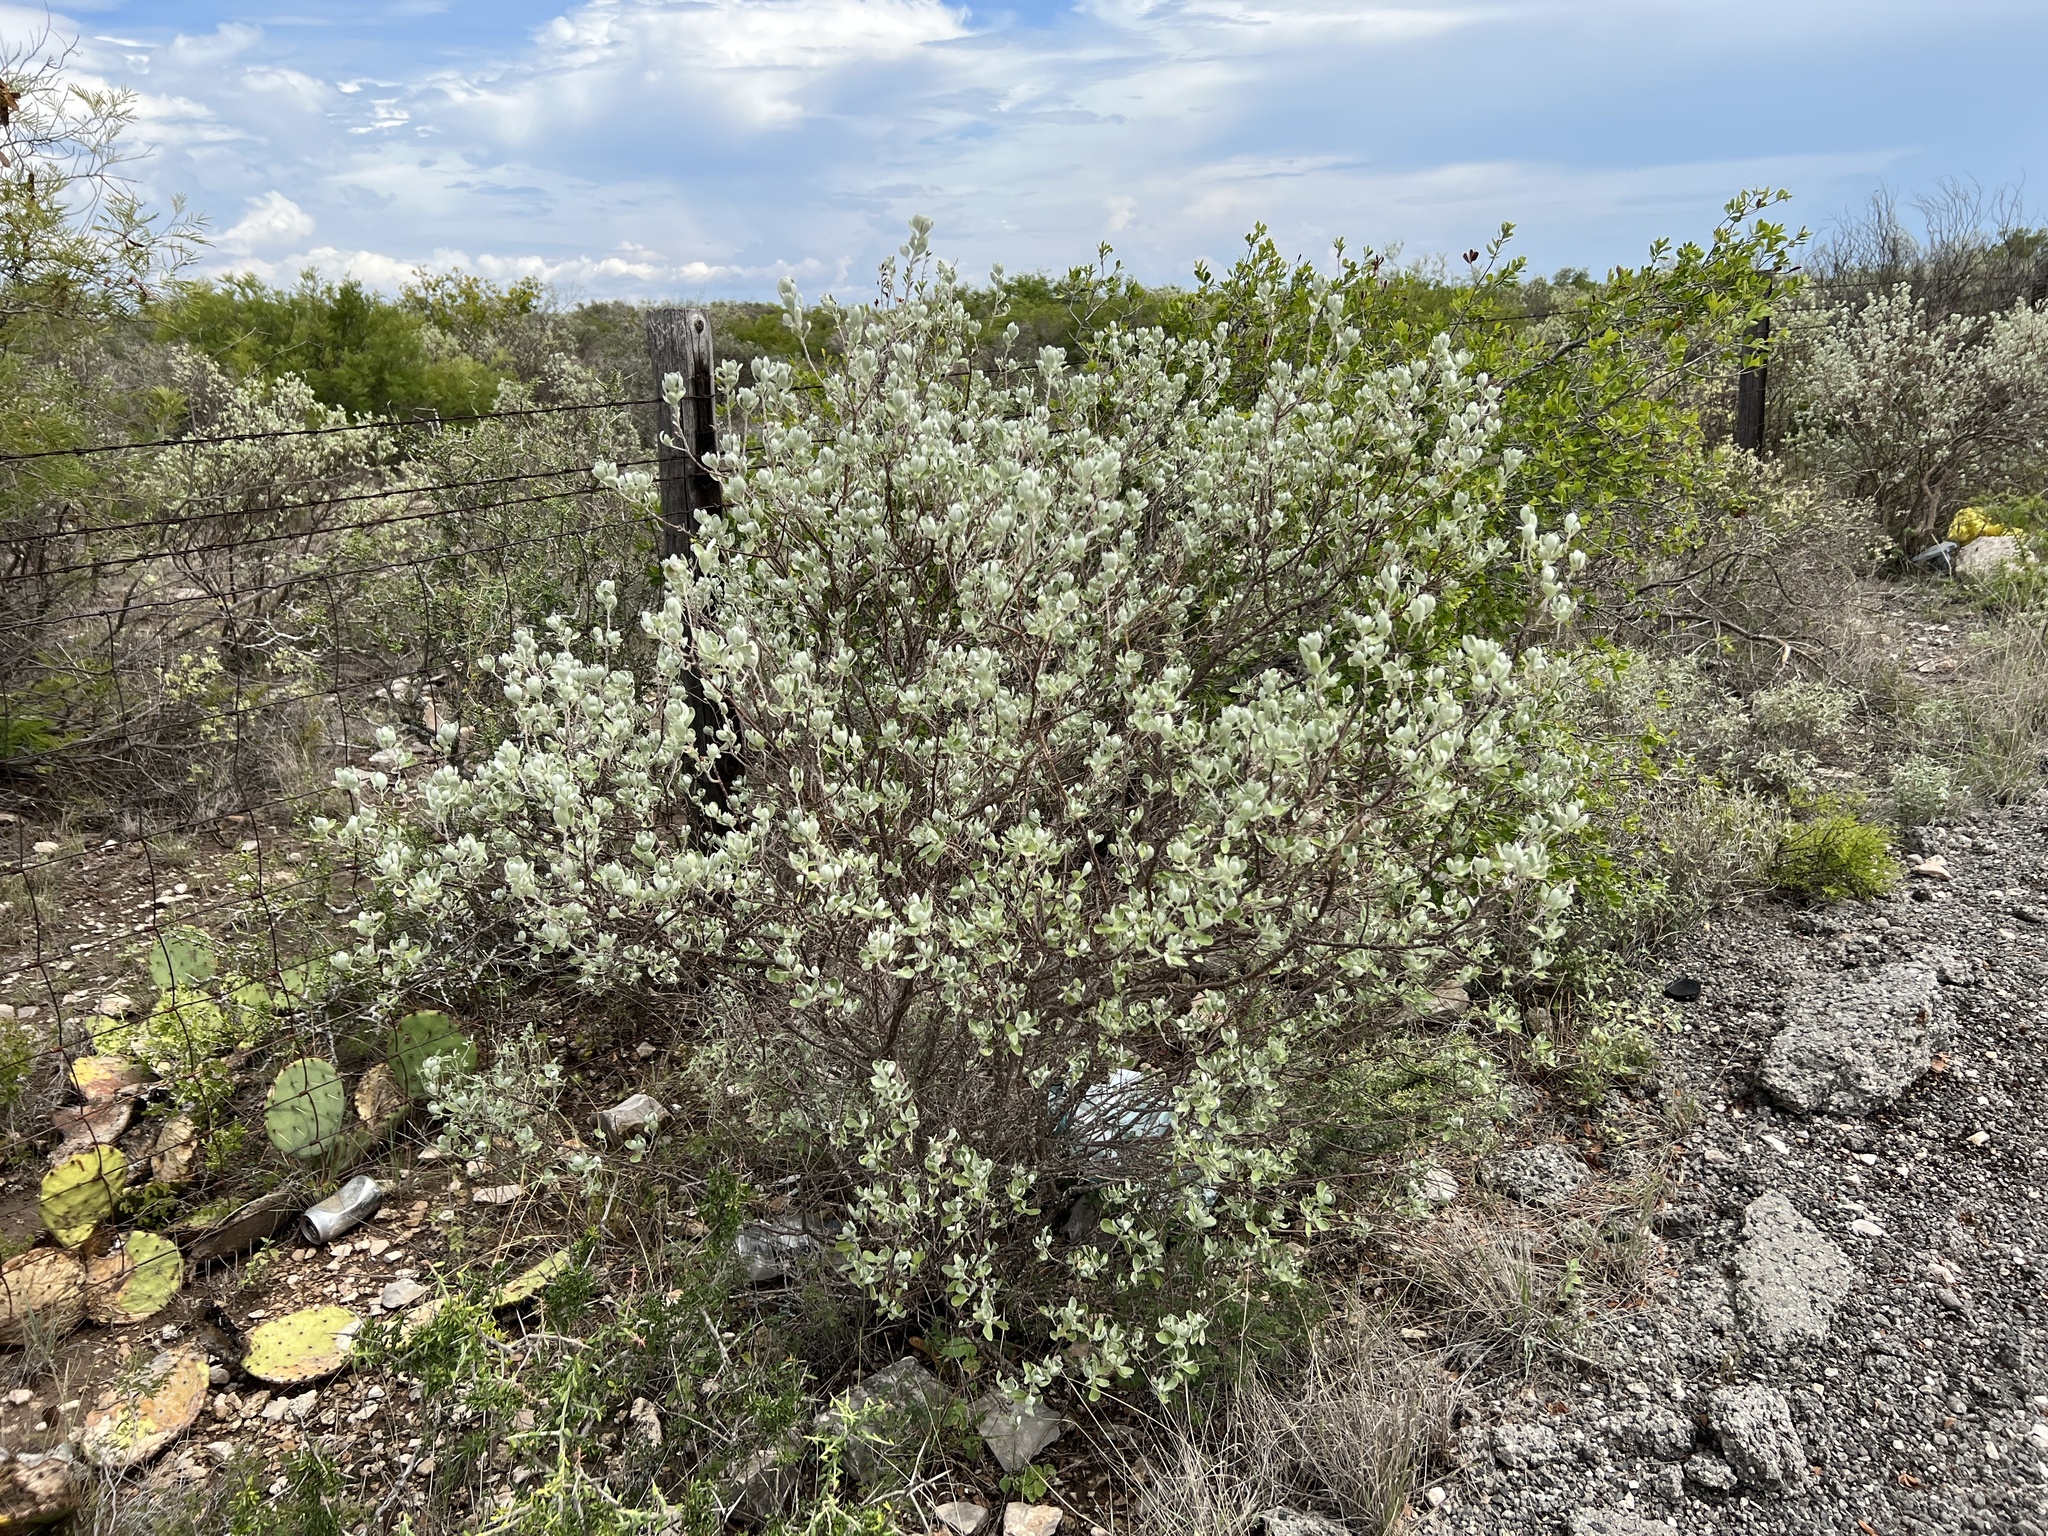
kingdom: Plantae
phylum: Tracheophyta
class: Magnoliopsida
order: Lamiales
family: Scrophulariaceae
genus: Leucophyllum
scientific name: Leucophyllum frutescens
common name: Texas silverleaf
